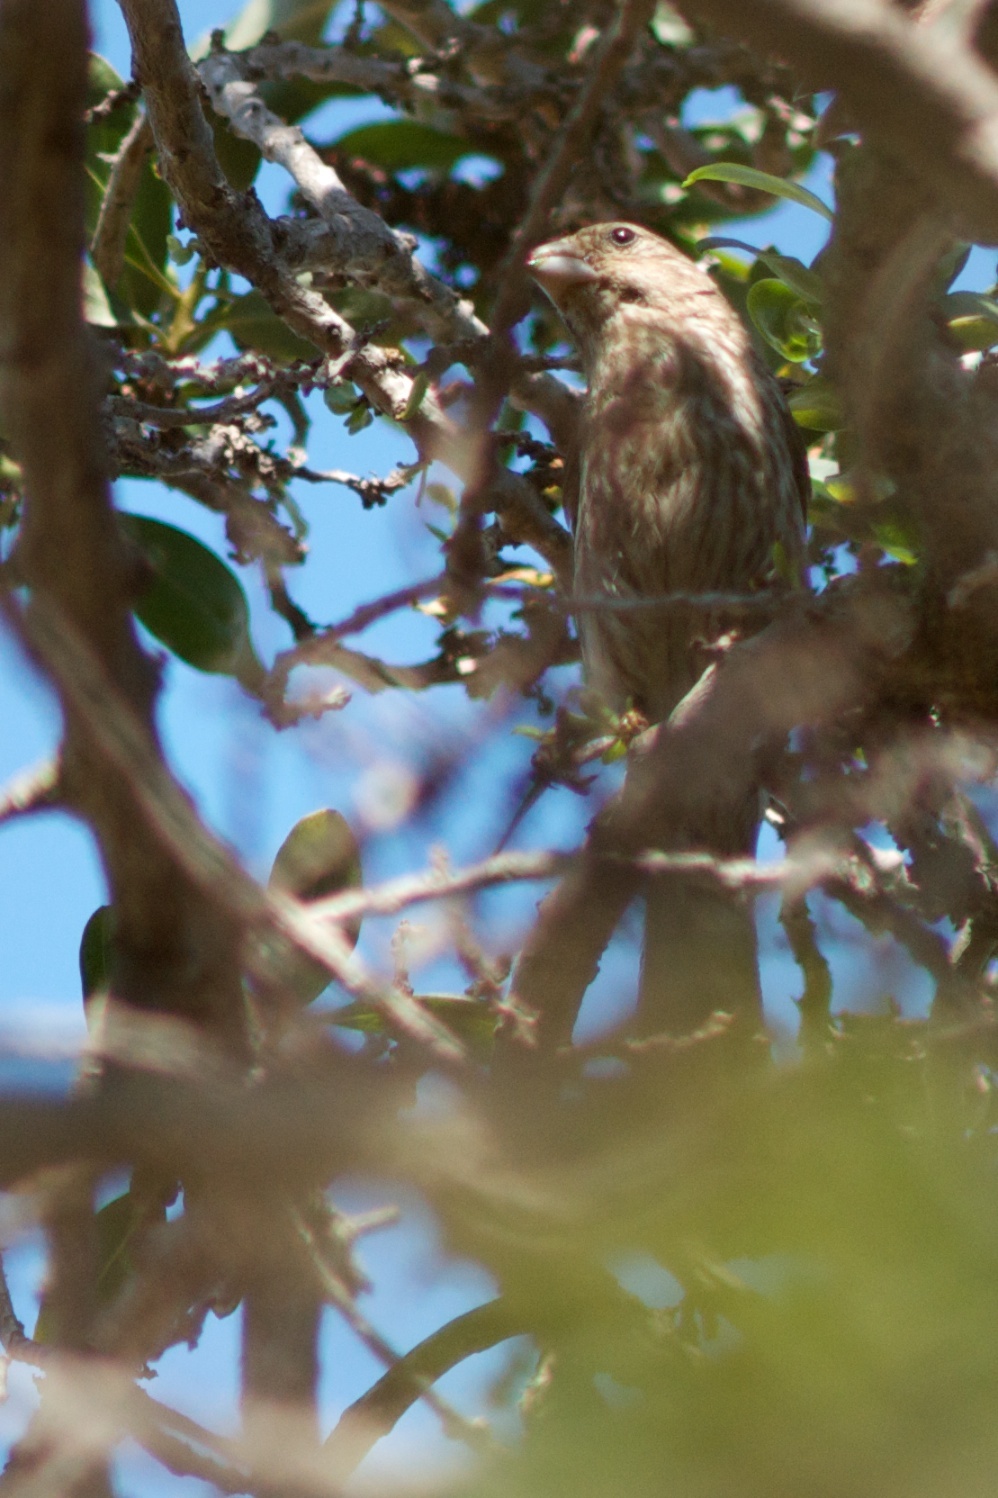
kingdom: Animalia
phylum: Chordata
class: Aves
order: Passeriformes
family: Fringillidae
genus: Haemorhous
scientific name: Haemorhous mexicanus
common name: House finch
